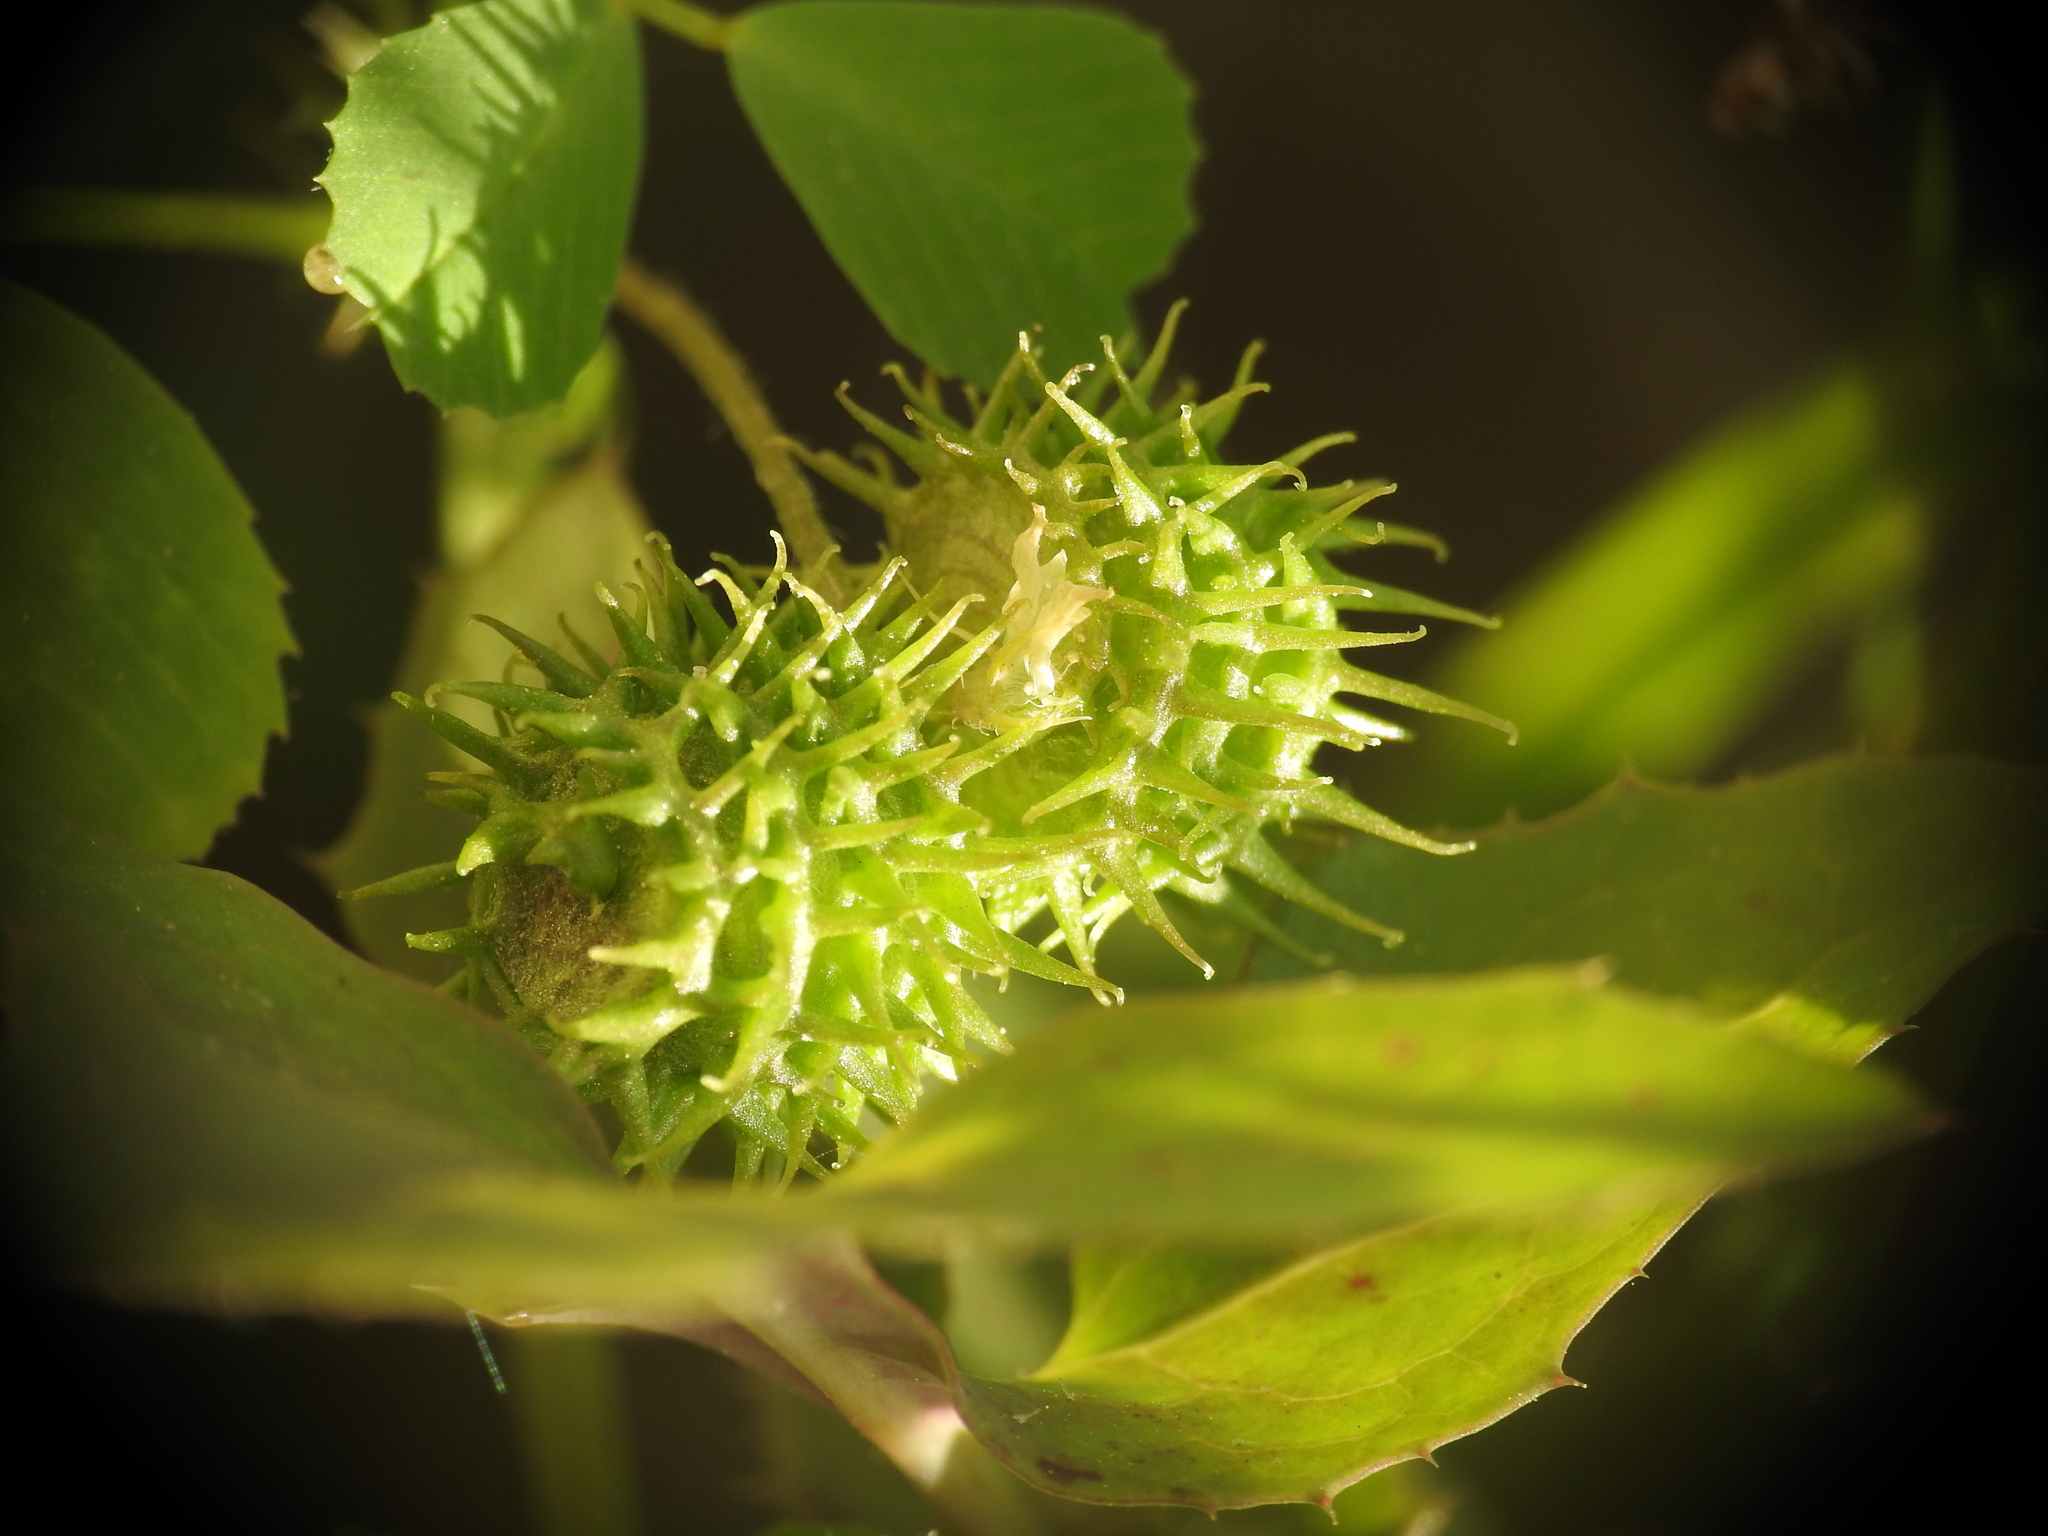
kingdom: Plantae
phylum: Tracheophyta
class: Magnoliopsida
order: Fabales
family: Fabaceae
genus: Medicago
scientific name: Medicago polymorpha
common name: Burclover
